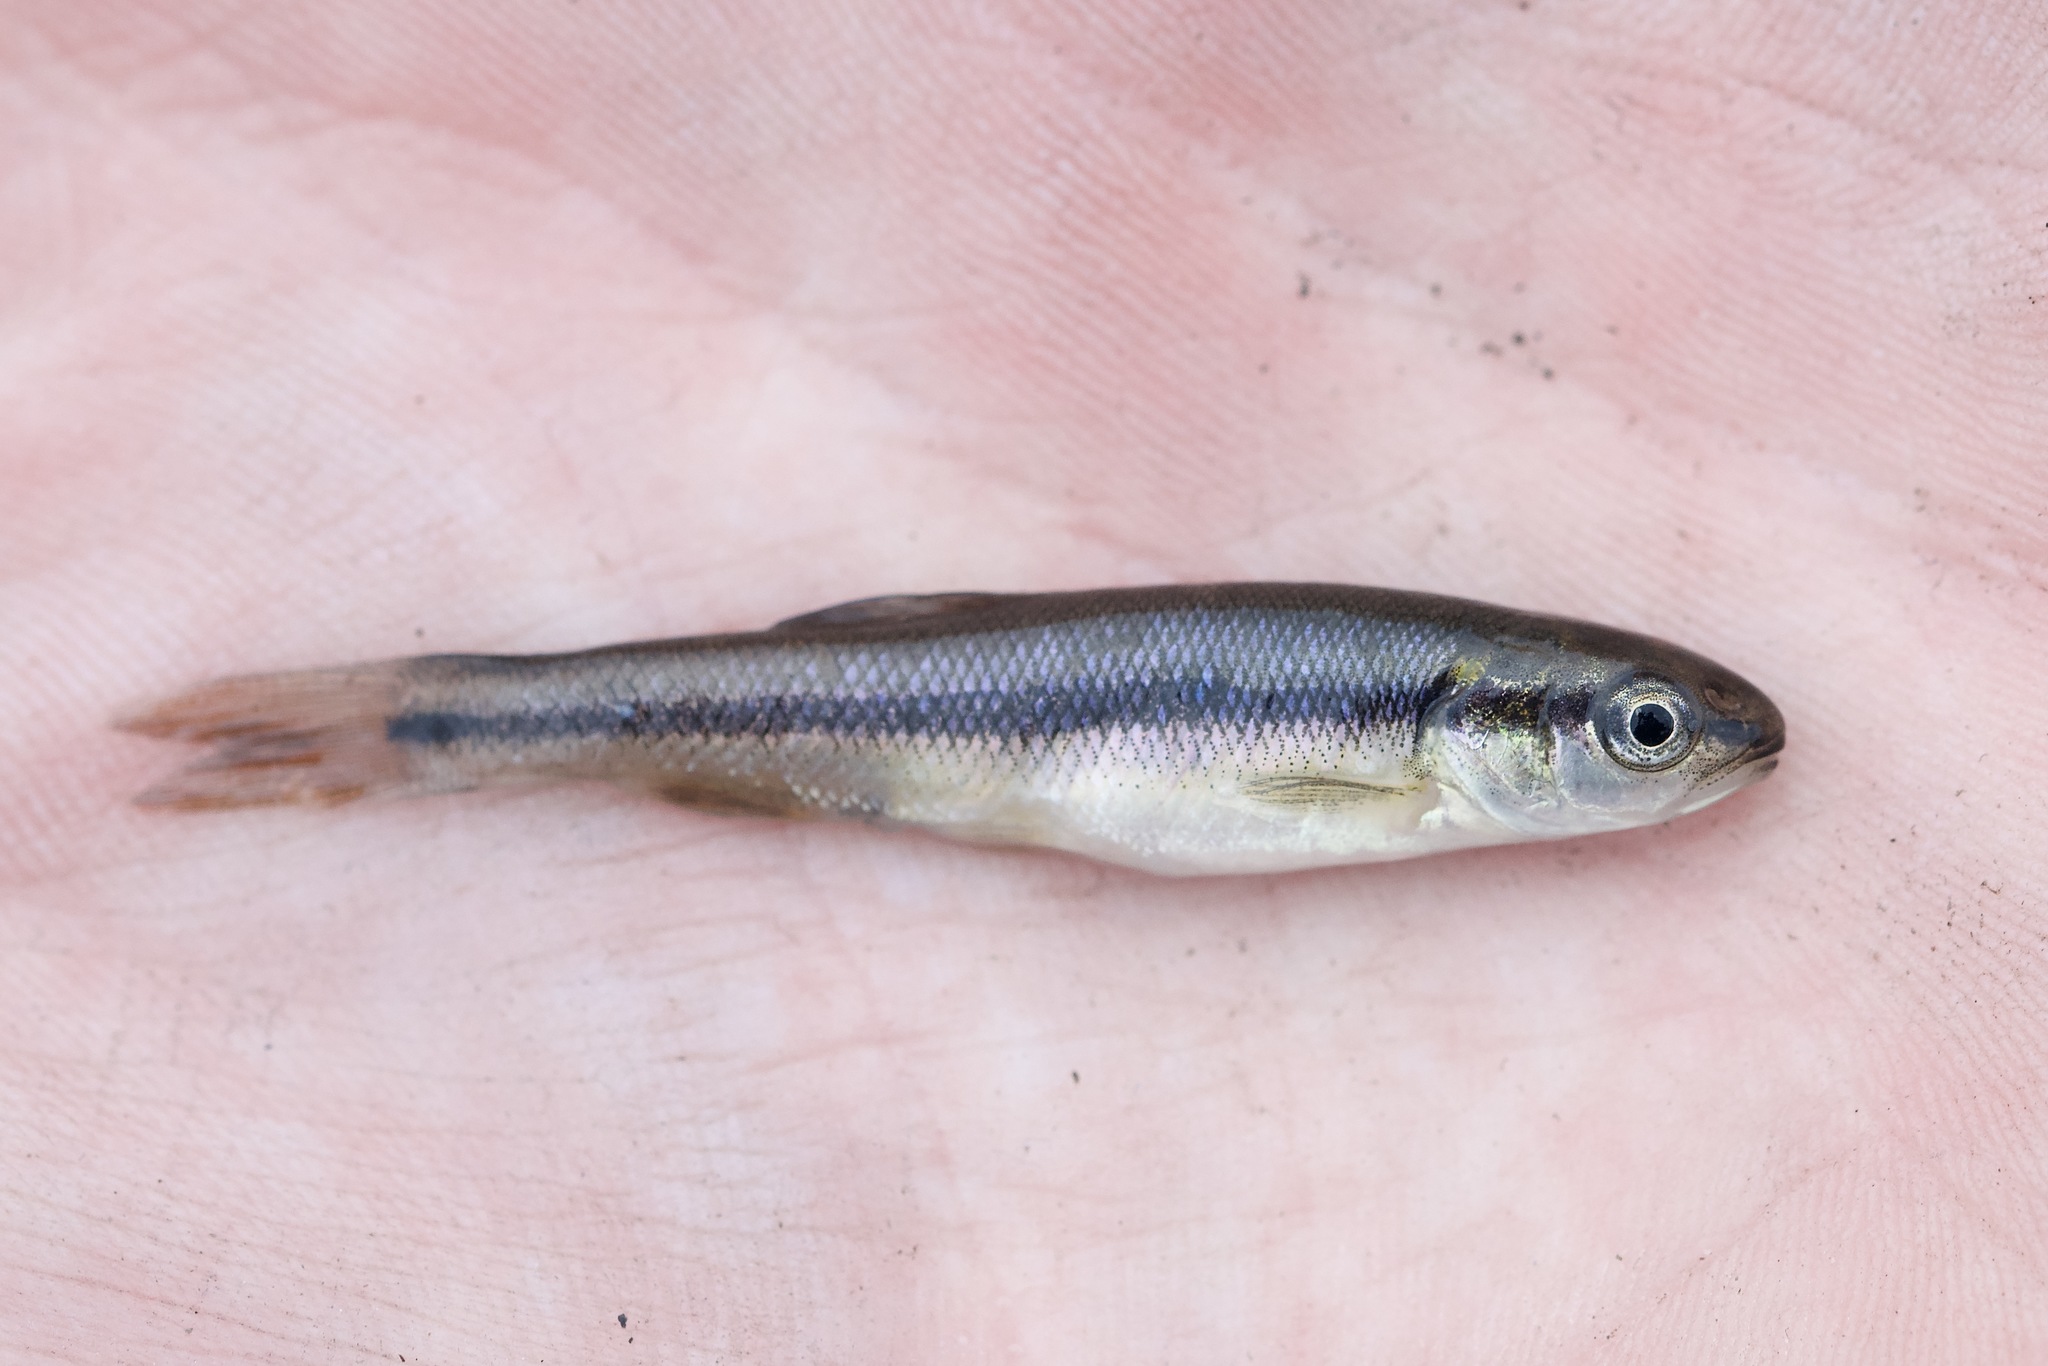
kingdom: Animalia
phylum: Chordata
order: Cypriniformes
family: Cyprinidae
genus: Semotilus
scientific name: Semotilus atromaculatus
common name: Creek chub
